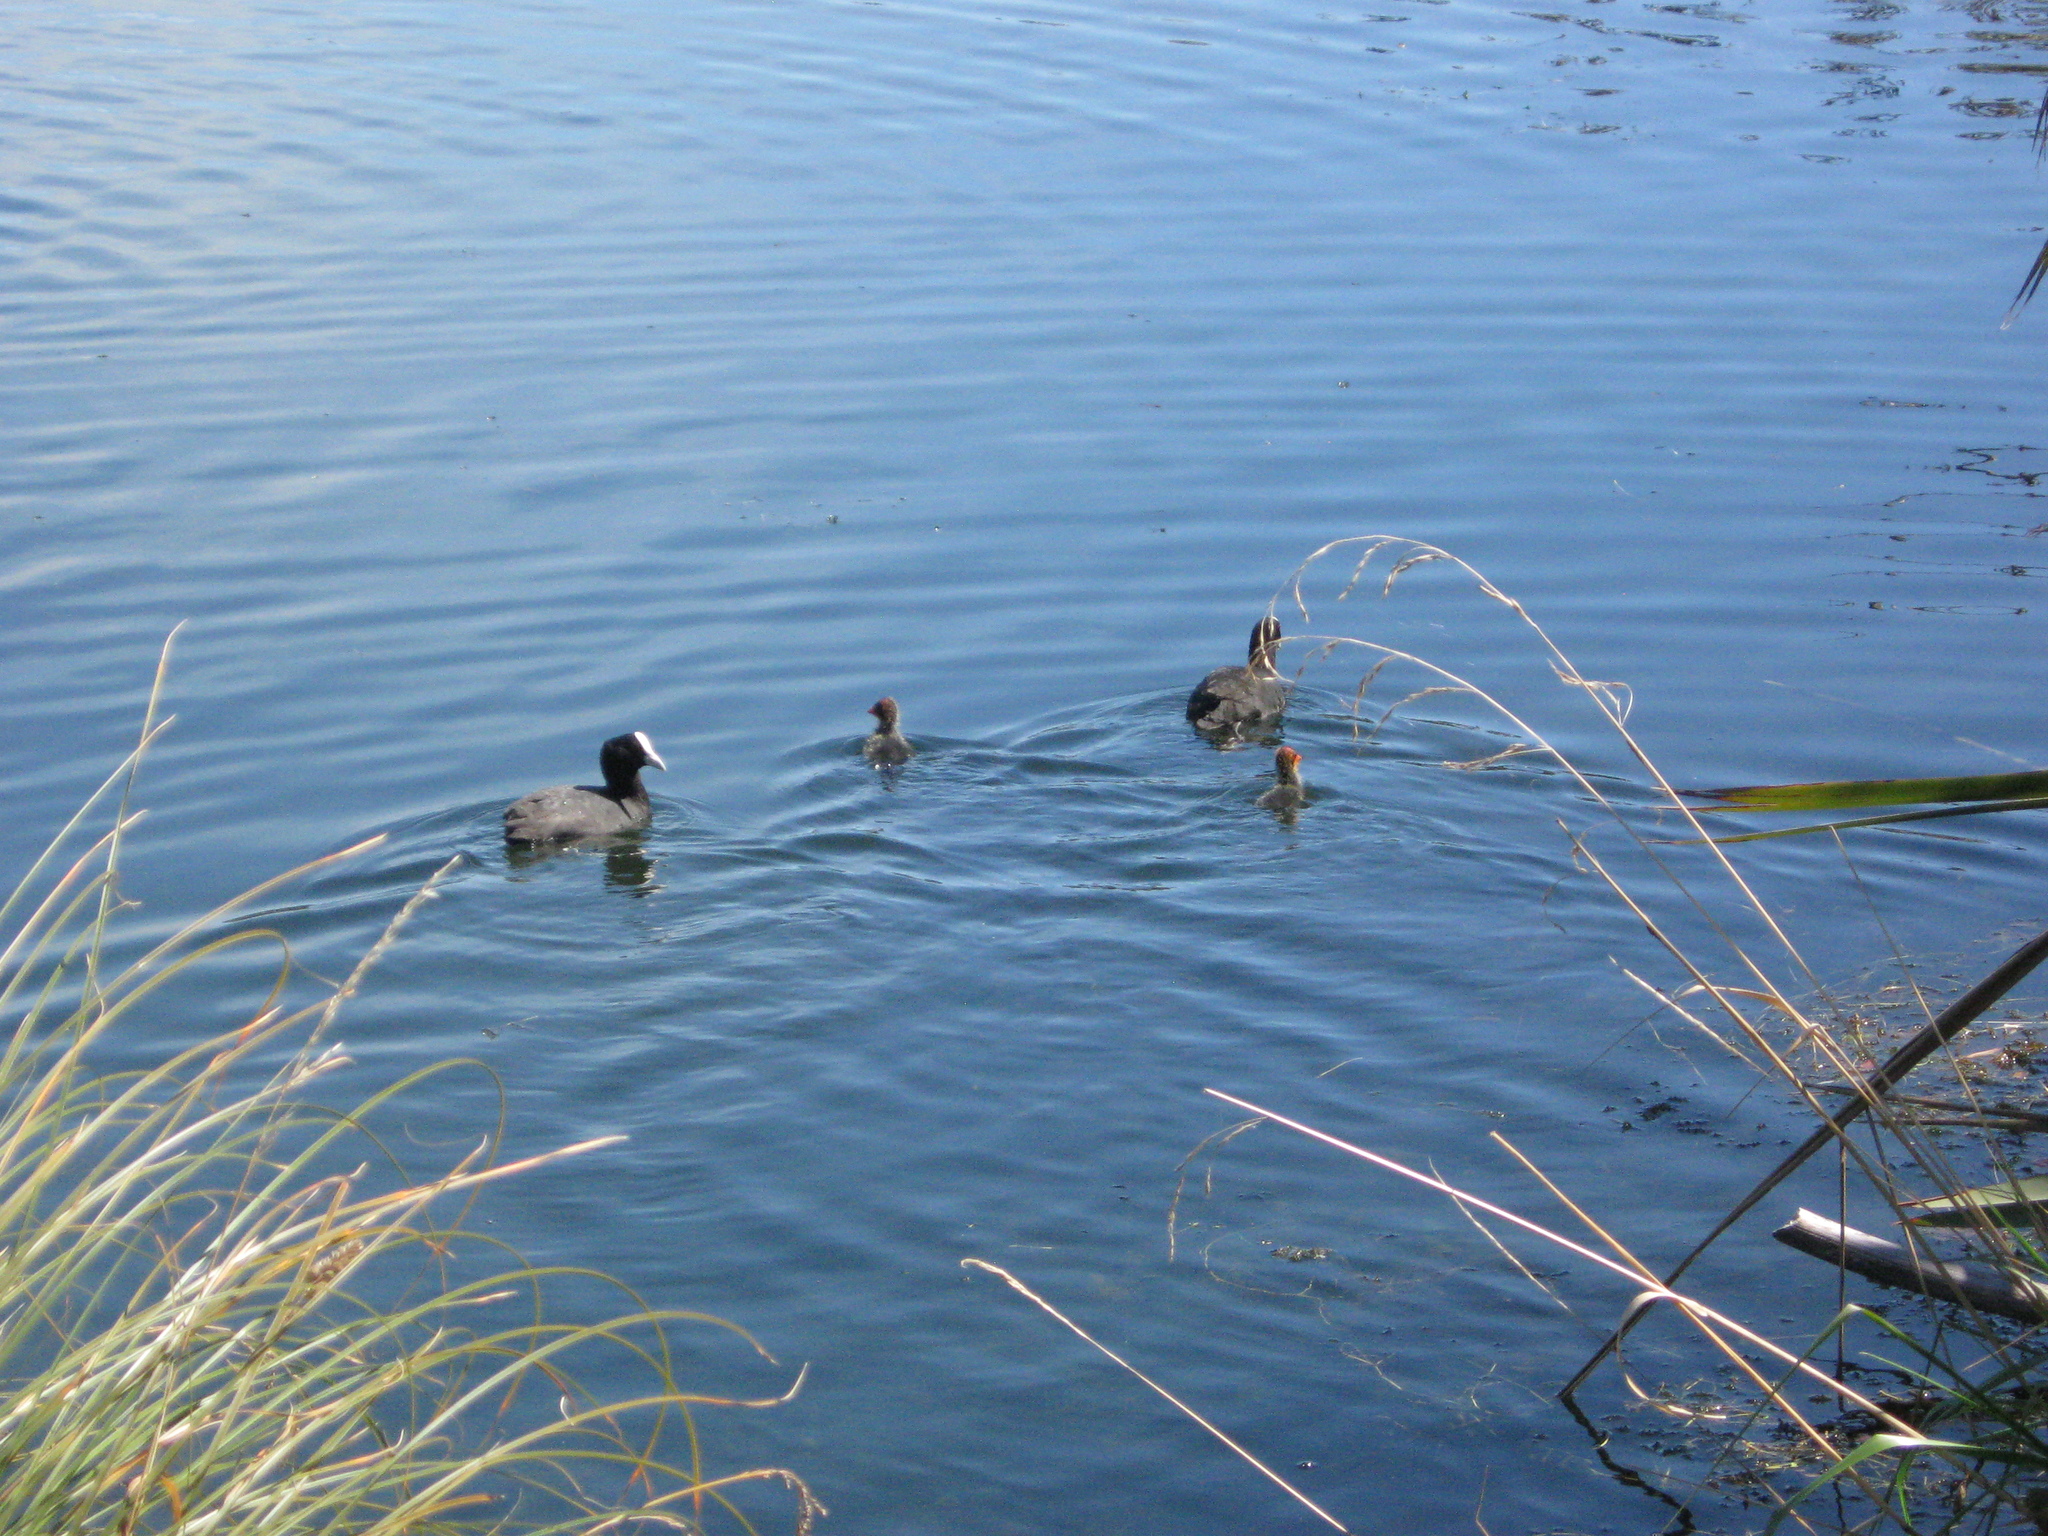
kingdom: Animalia
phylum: Chordata
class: Aves
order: Gruiformes
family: Rallidae
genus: Fulica
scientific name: Fulica atra
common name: Eurasian coot
